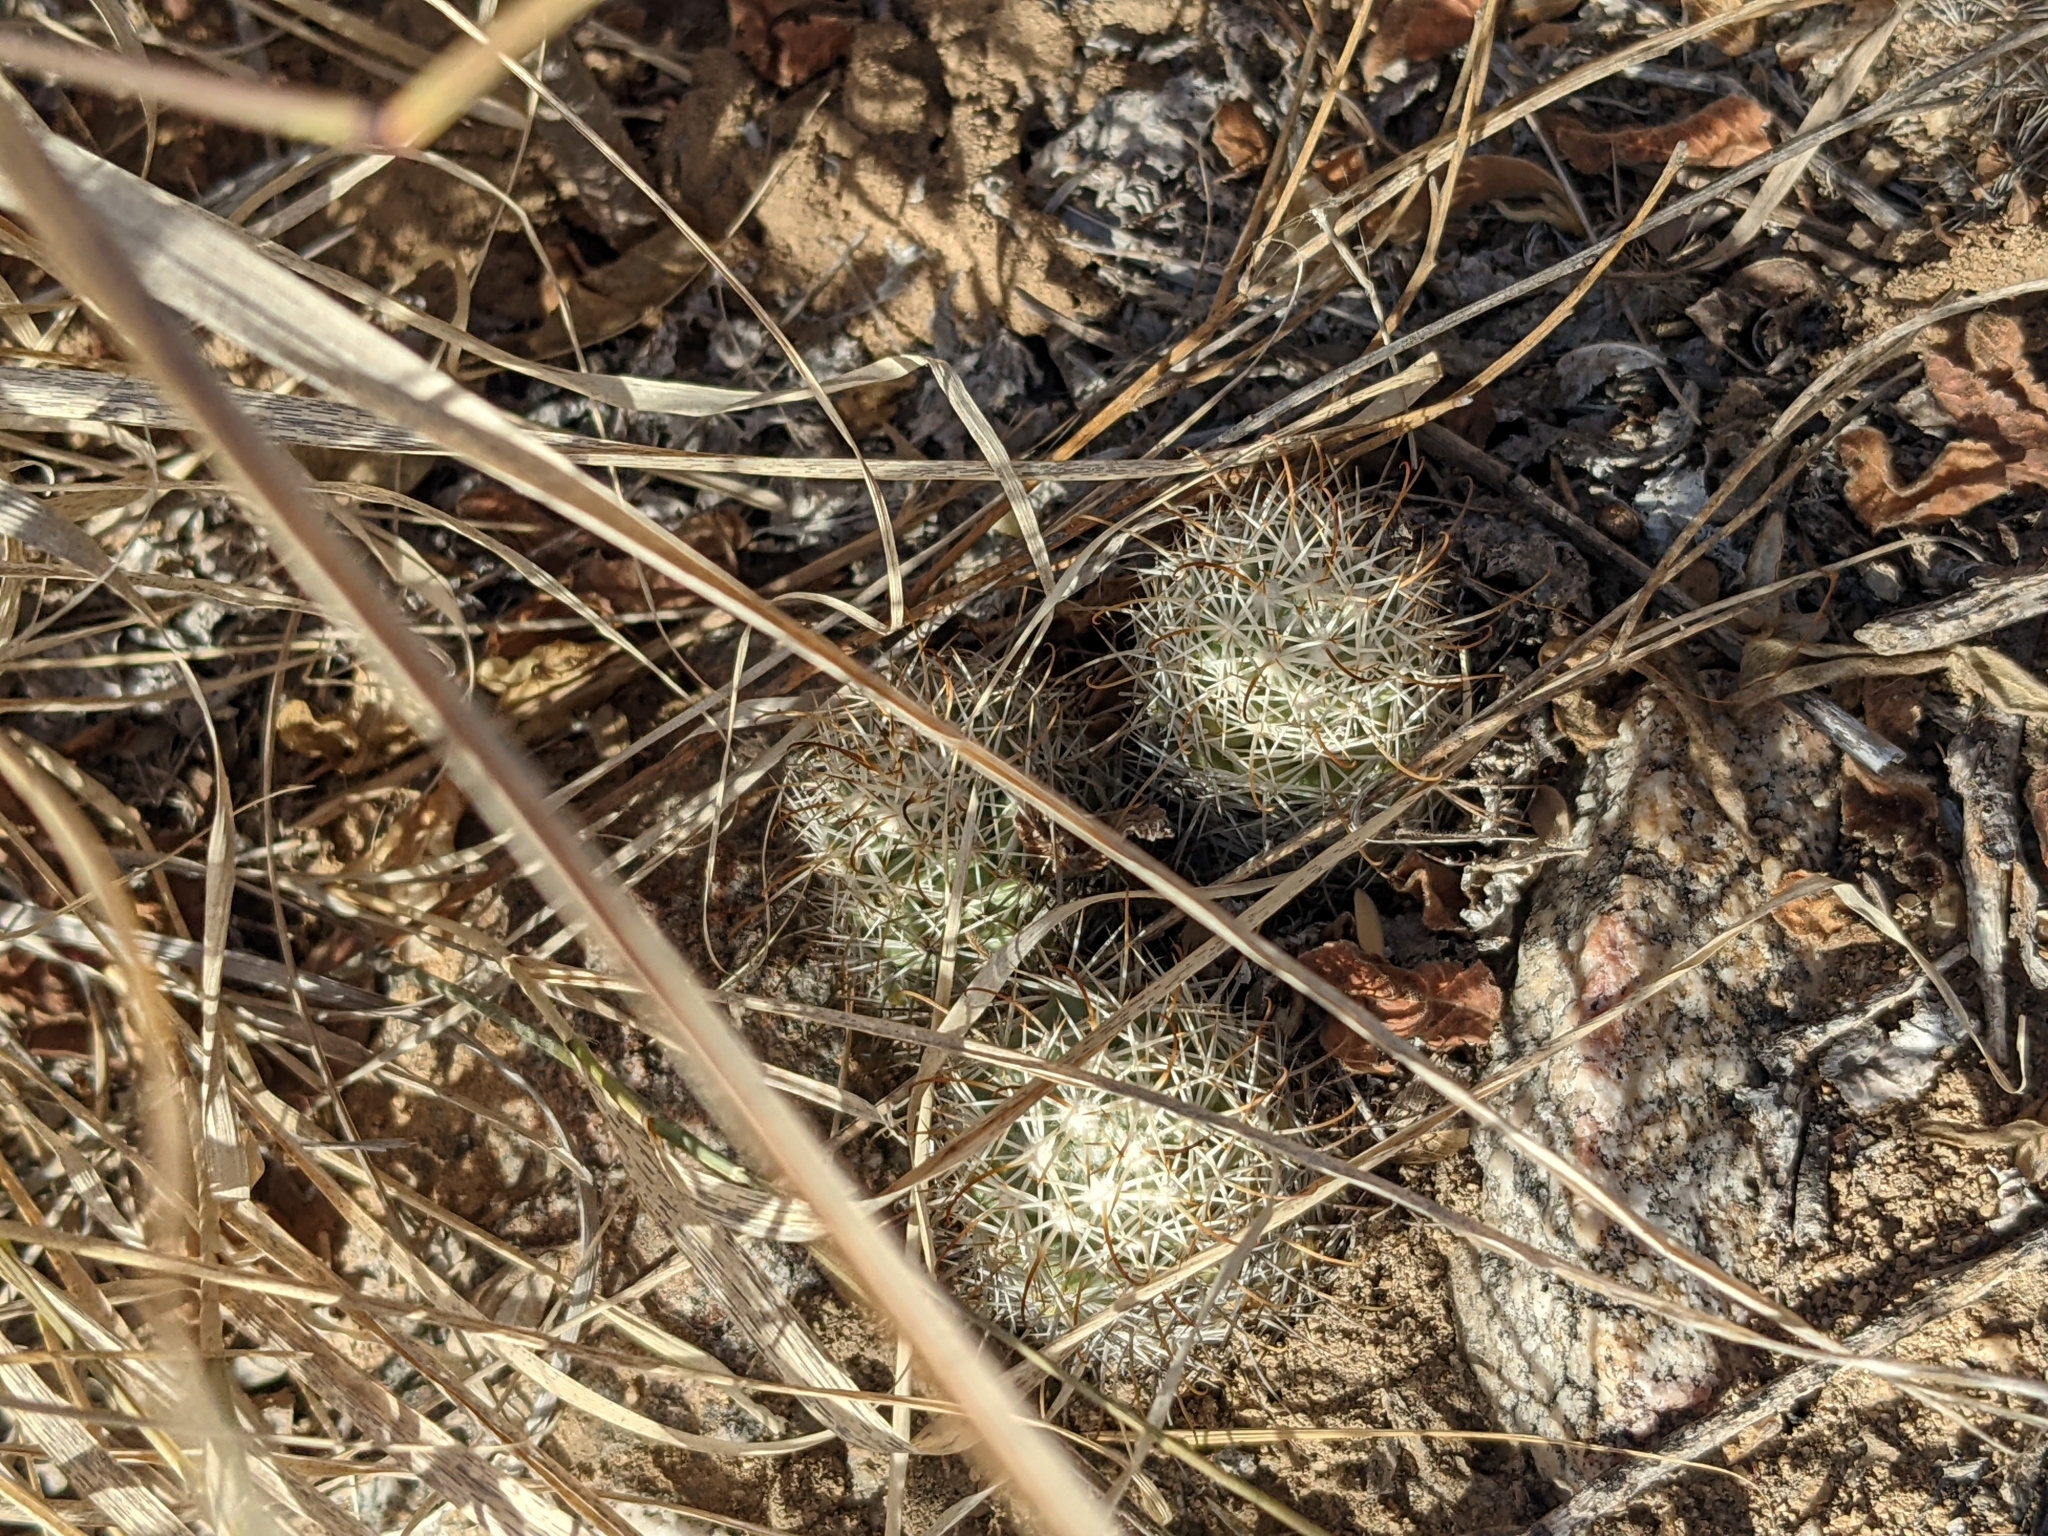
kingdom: Plantae
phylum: Tracheophyta
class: Magnoliopsida
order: Caryophyllales
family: Cactaceae
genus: Cochemiea
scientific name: Cochemiea schumannii
